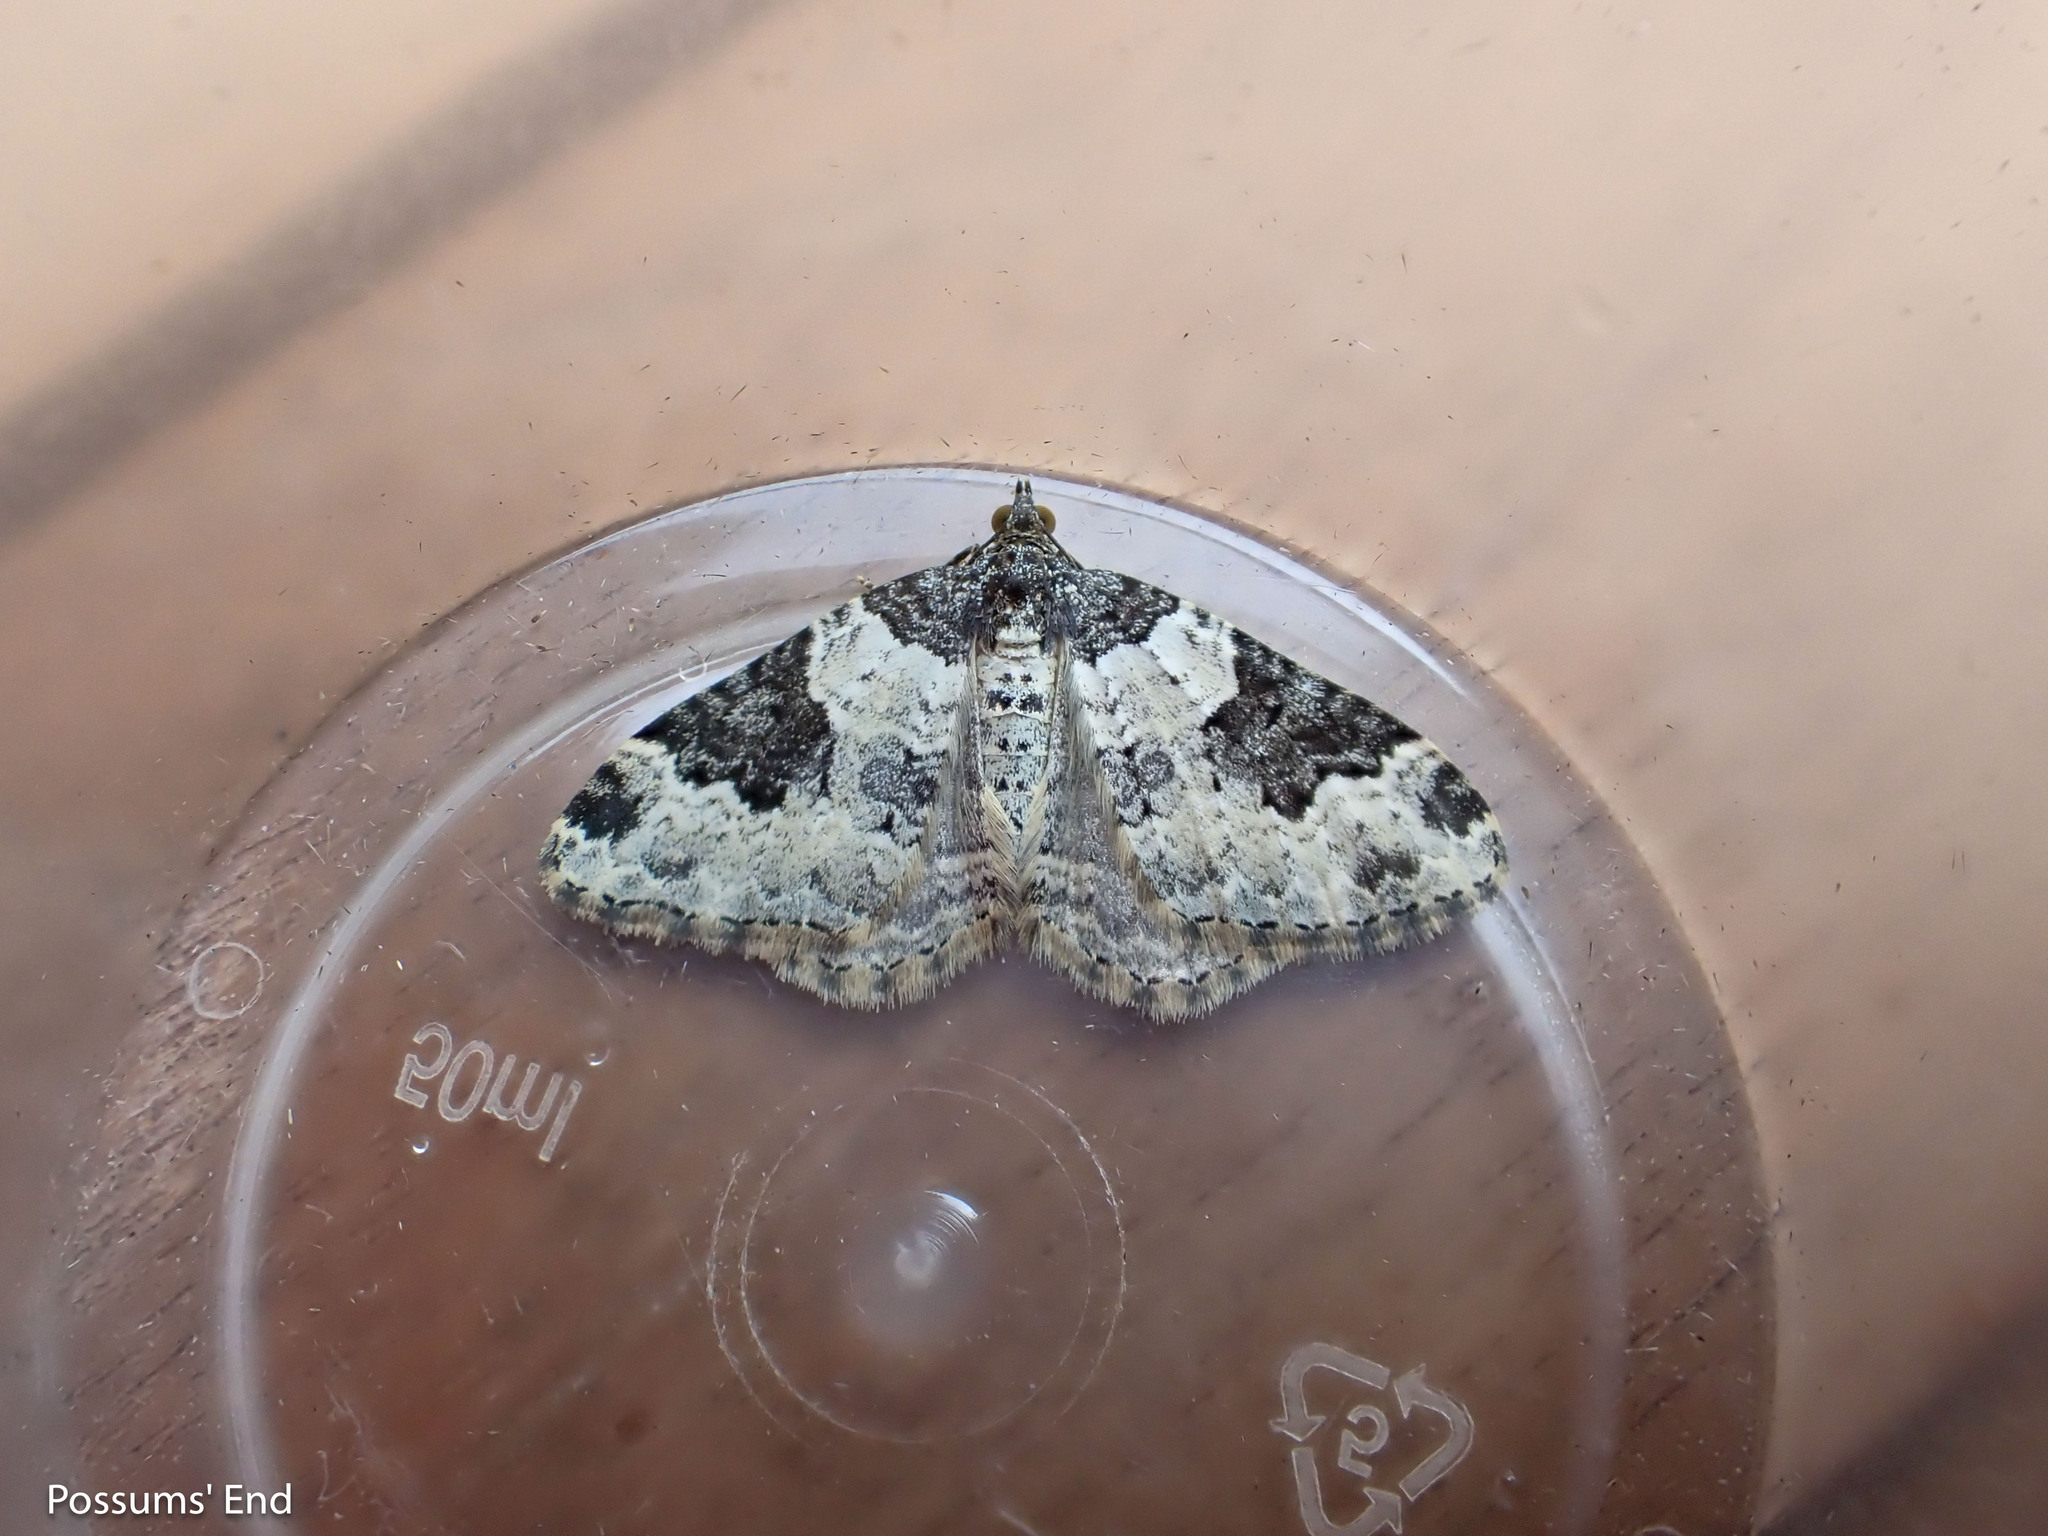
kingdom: Animalia
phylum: Arthropoda
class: Insecta
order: Lepidoptera
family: Geometridae
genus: Xanthorhoe
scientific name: Xanthorhoe fluctuata
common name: Garden carpet
